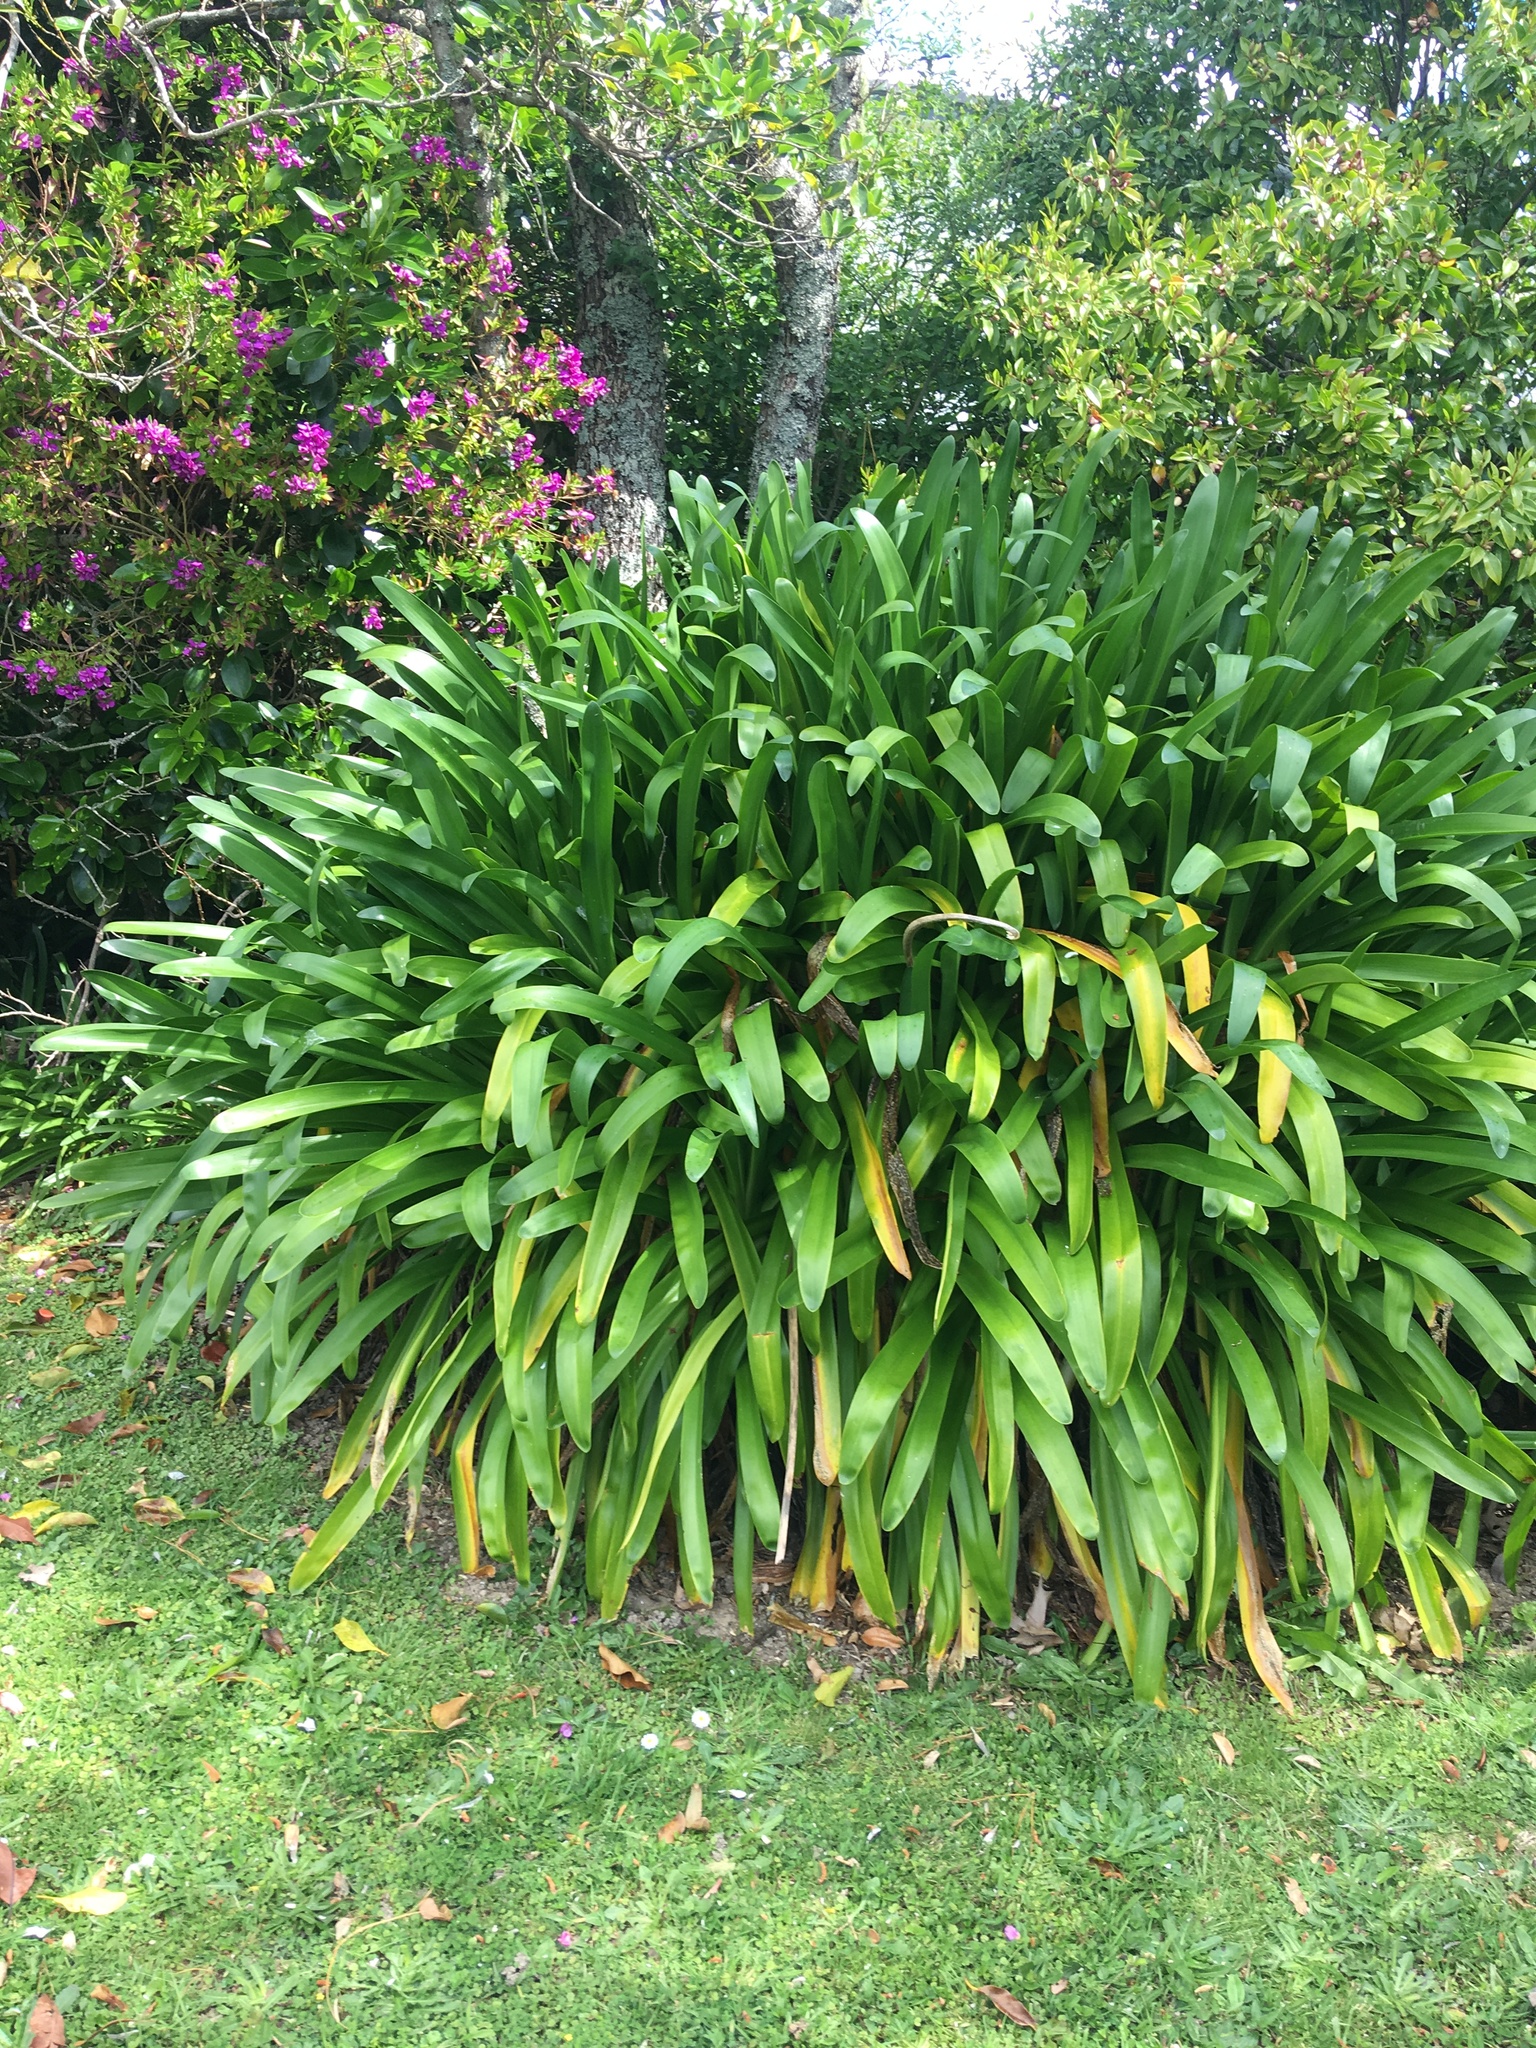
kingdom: Plantae
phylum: Tracheophyta
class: Liliopsida
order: Asparagales
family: Amaryllidaceae
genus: Agapanthus
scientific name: Agapanthus praecox
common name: African-lily
